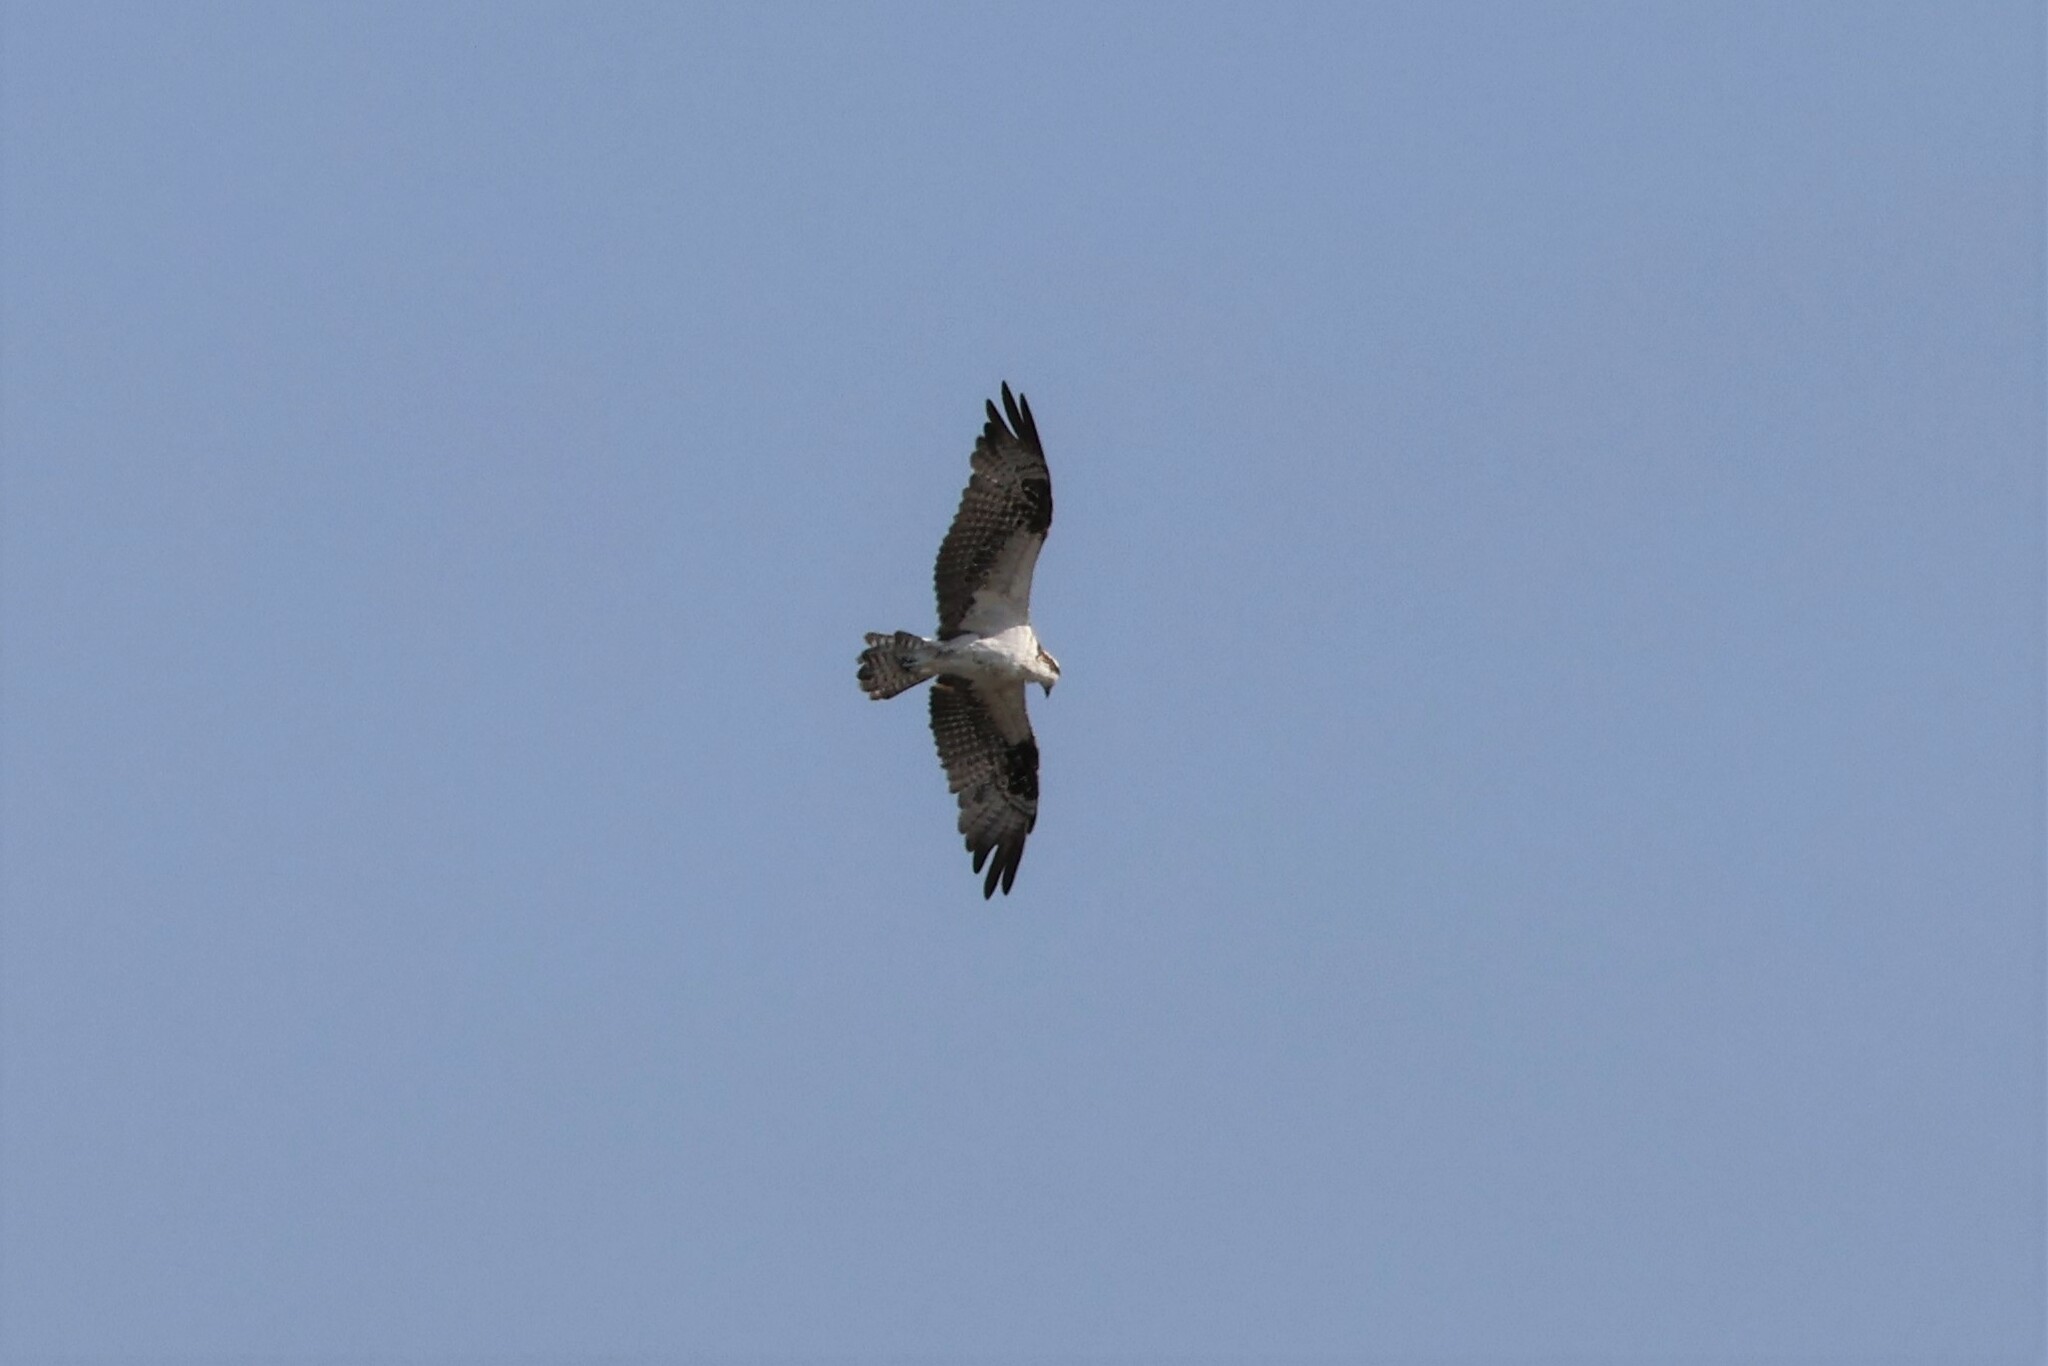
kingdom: Animalia
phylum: Chordata
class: Aves
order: Accipitriformes
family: Pandionidae
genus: Pandion
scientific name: Pandion haliaetus
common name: Osprey
